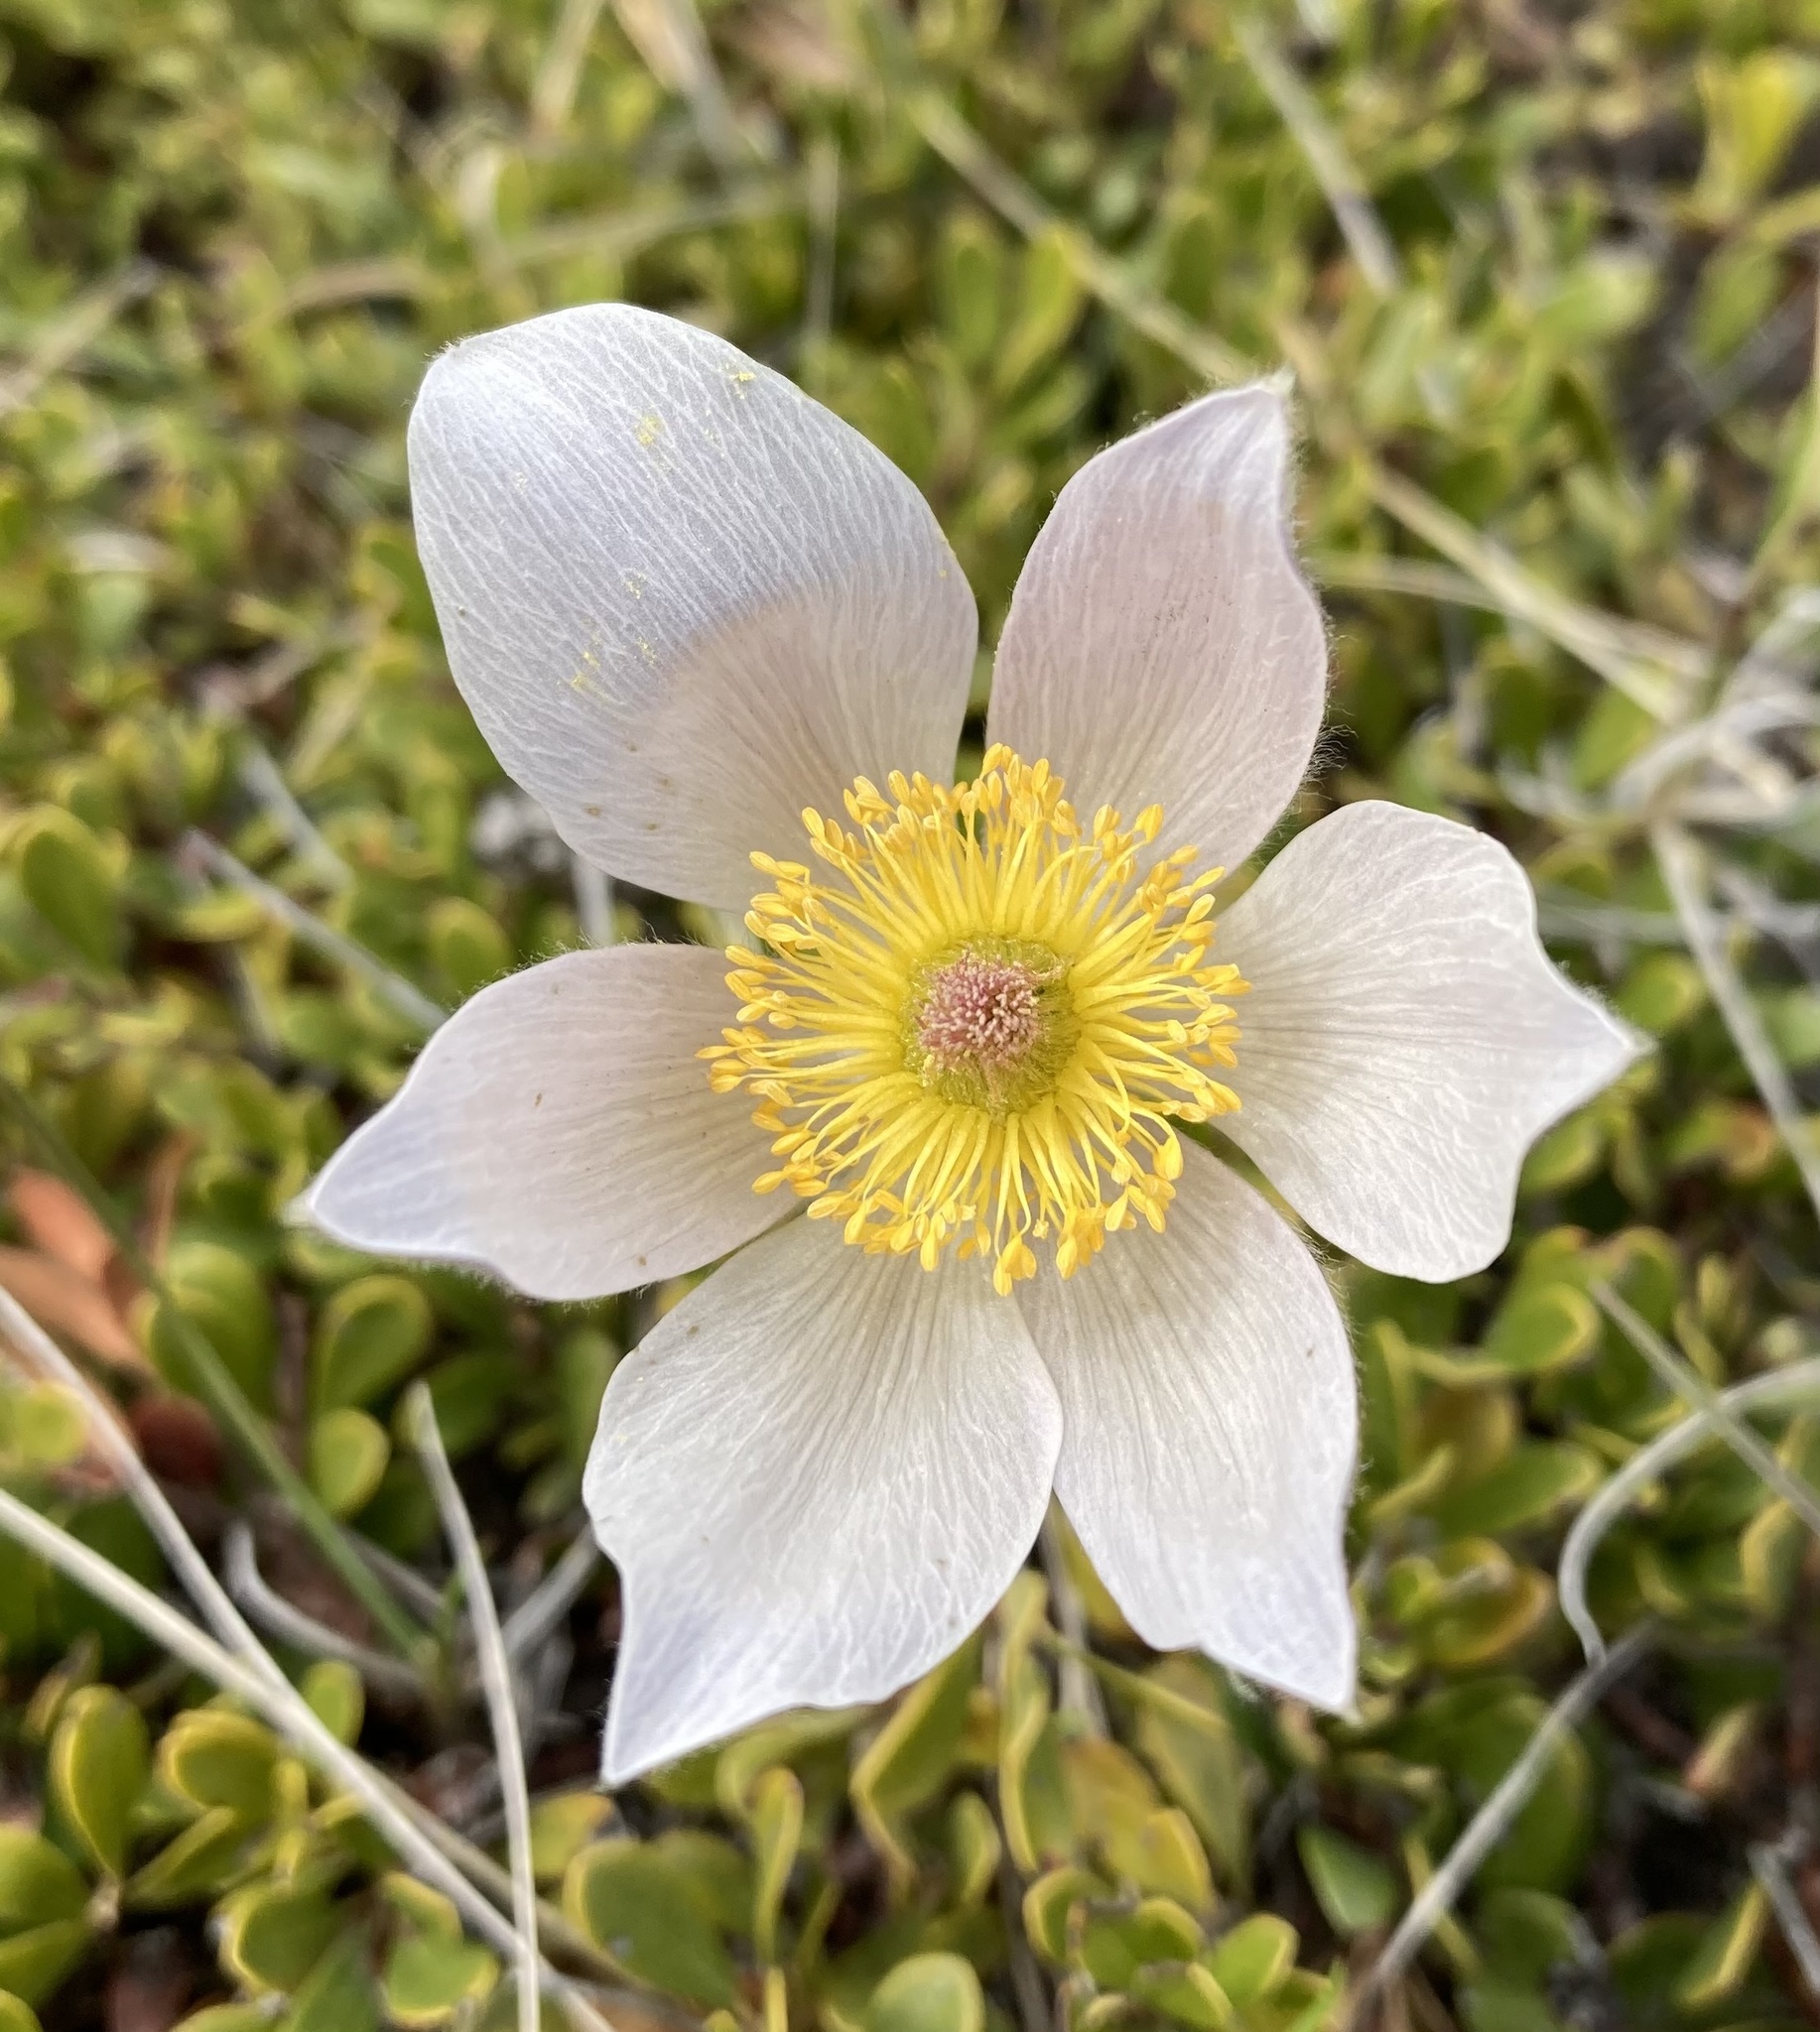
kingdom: Plantae
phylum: Tracheophyta
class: Magnoliopsida
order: Ranunculales
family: Ranunculaceae
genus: Pulsatilla
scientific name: Pulsatilla nuttalliana
